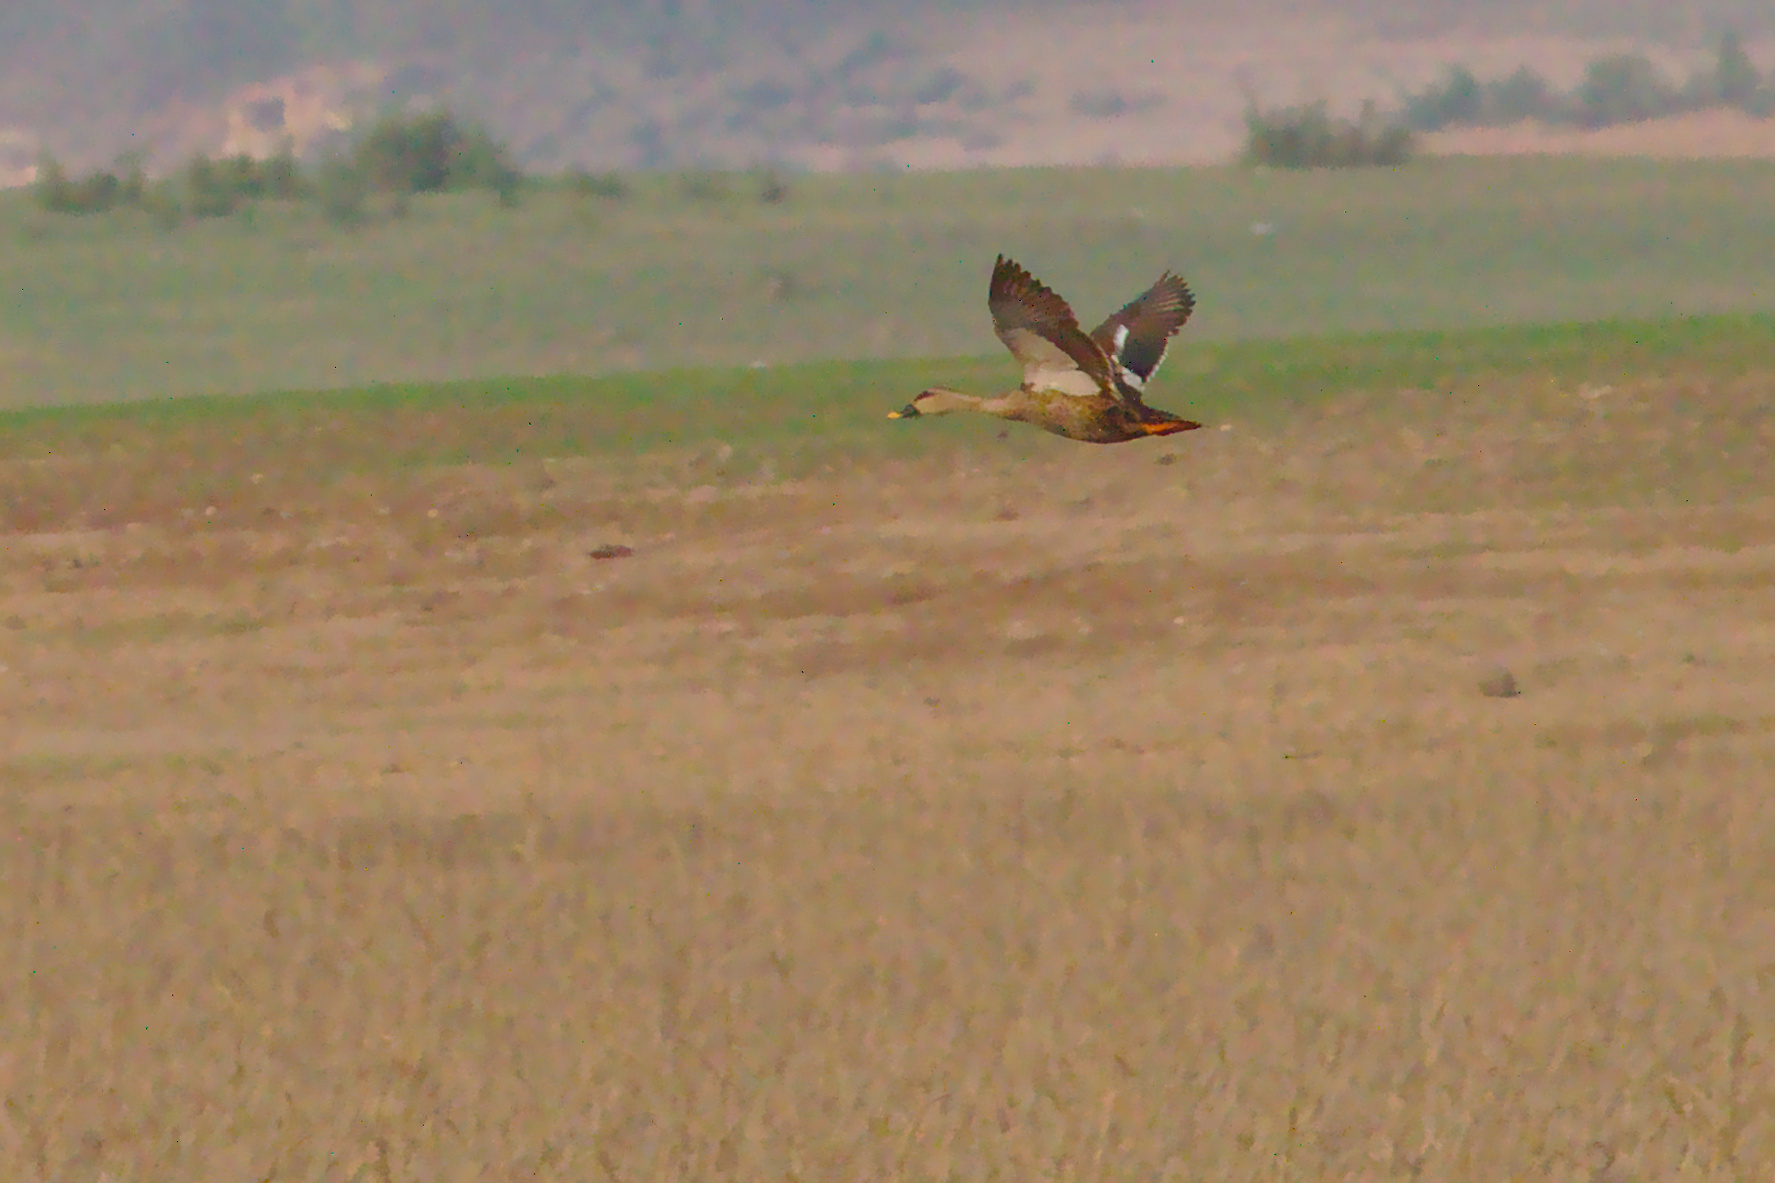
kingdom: Animalia
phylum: Chordata
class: Aves
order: Anseriformes
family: Anatidae
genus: Anas
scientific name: Anas poecilorhyncha
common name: Indian spot-billed duck
